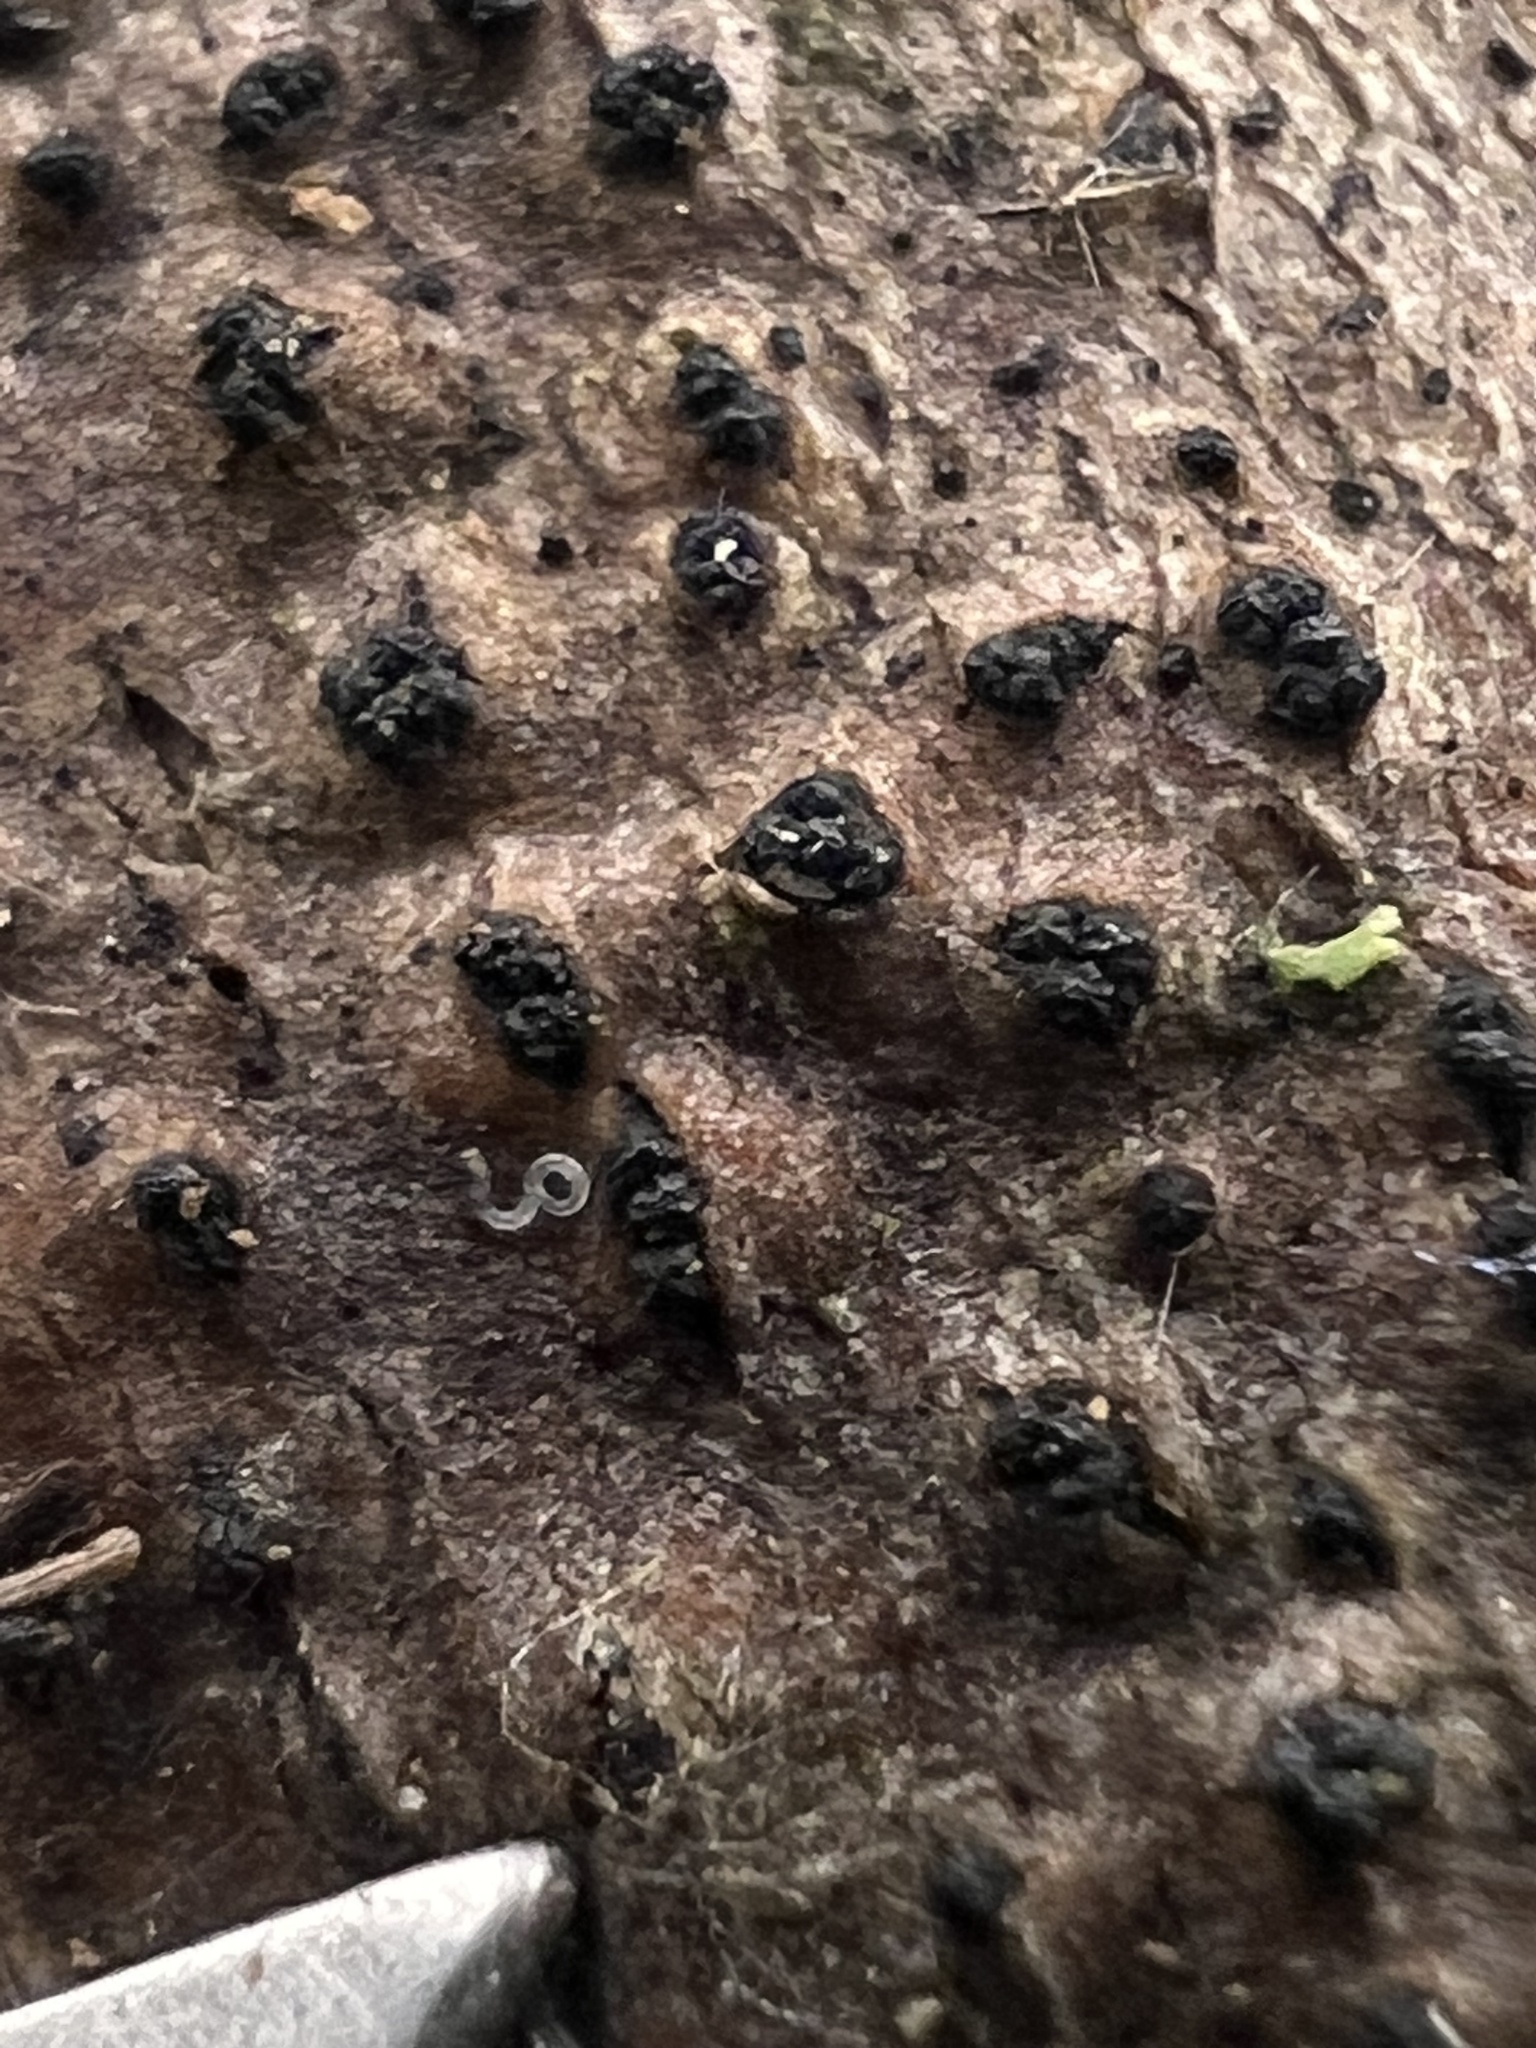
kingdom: Fungi
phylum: Ascomycota
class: Sordariomycetes
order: Xylariales
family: Diatrypaceae
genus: Diatrype
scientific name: Diatrype disciformis
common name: Beech barkspot
